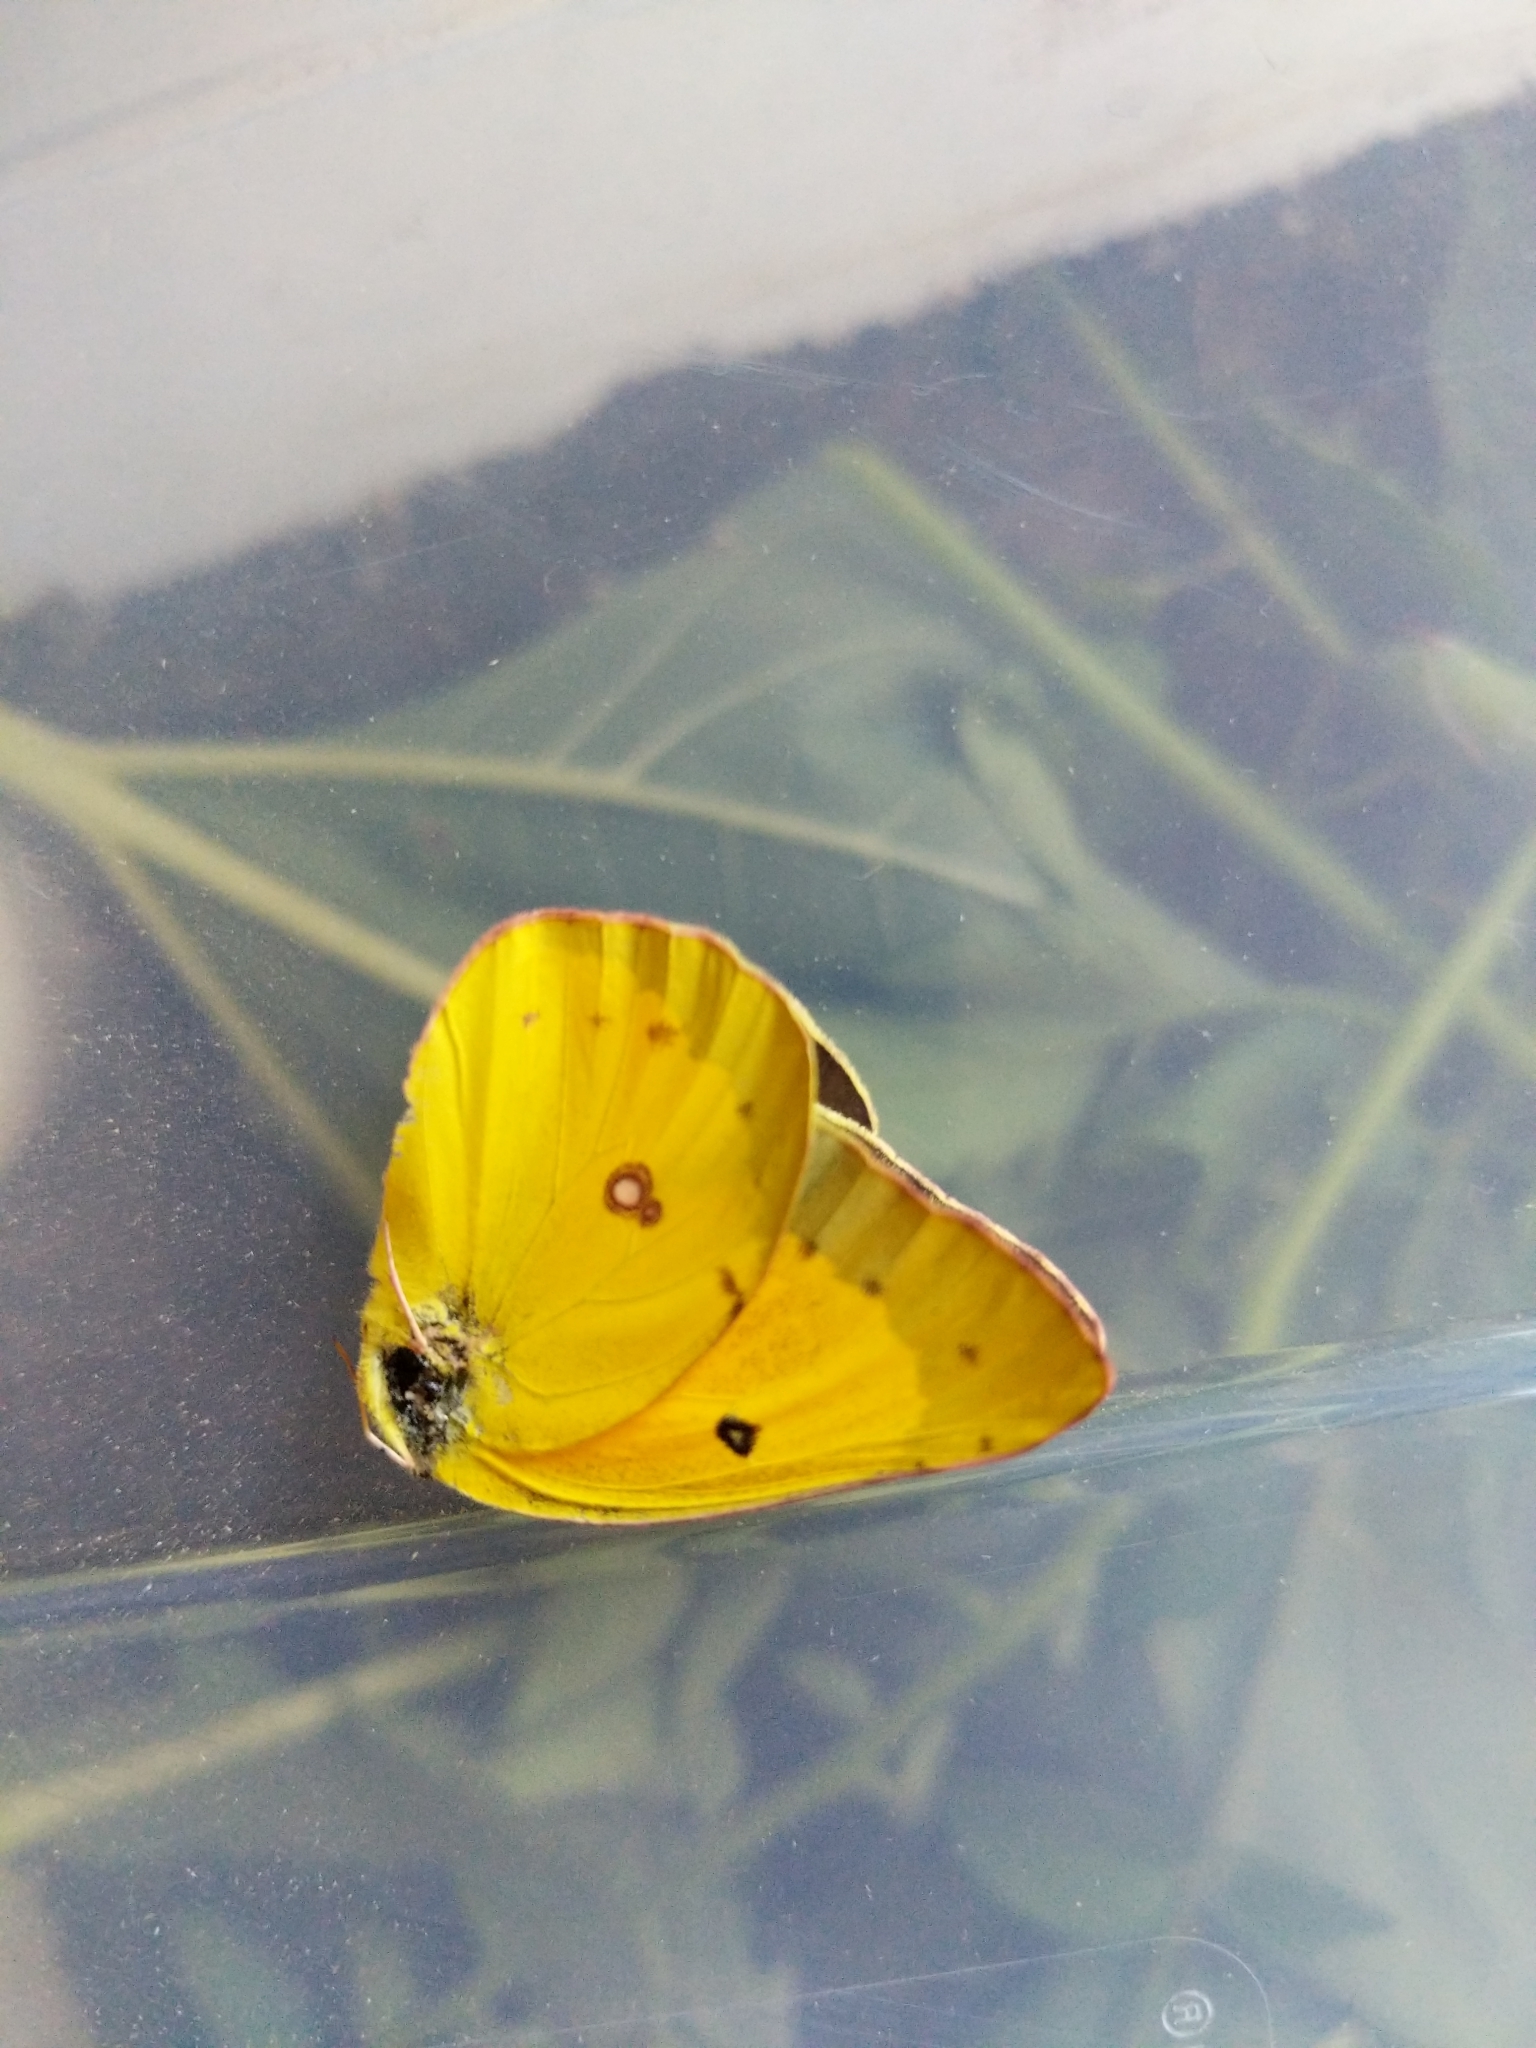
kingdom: Animalia
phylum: Arthropoda
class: Insecta
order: Lepidoptera
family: Pieridae
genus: Colias
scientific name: Colias eurytheme
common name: Alfalfa butterfly
